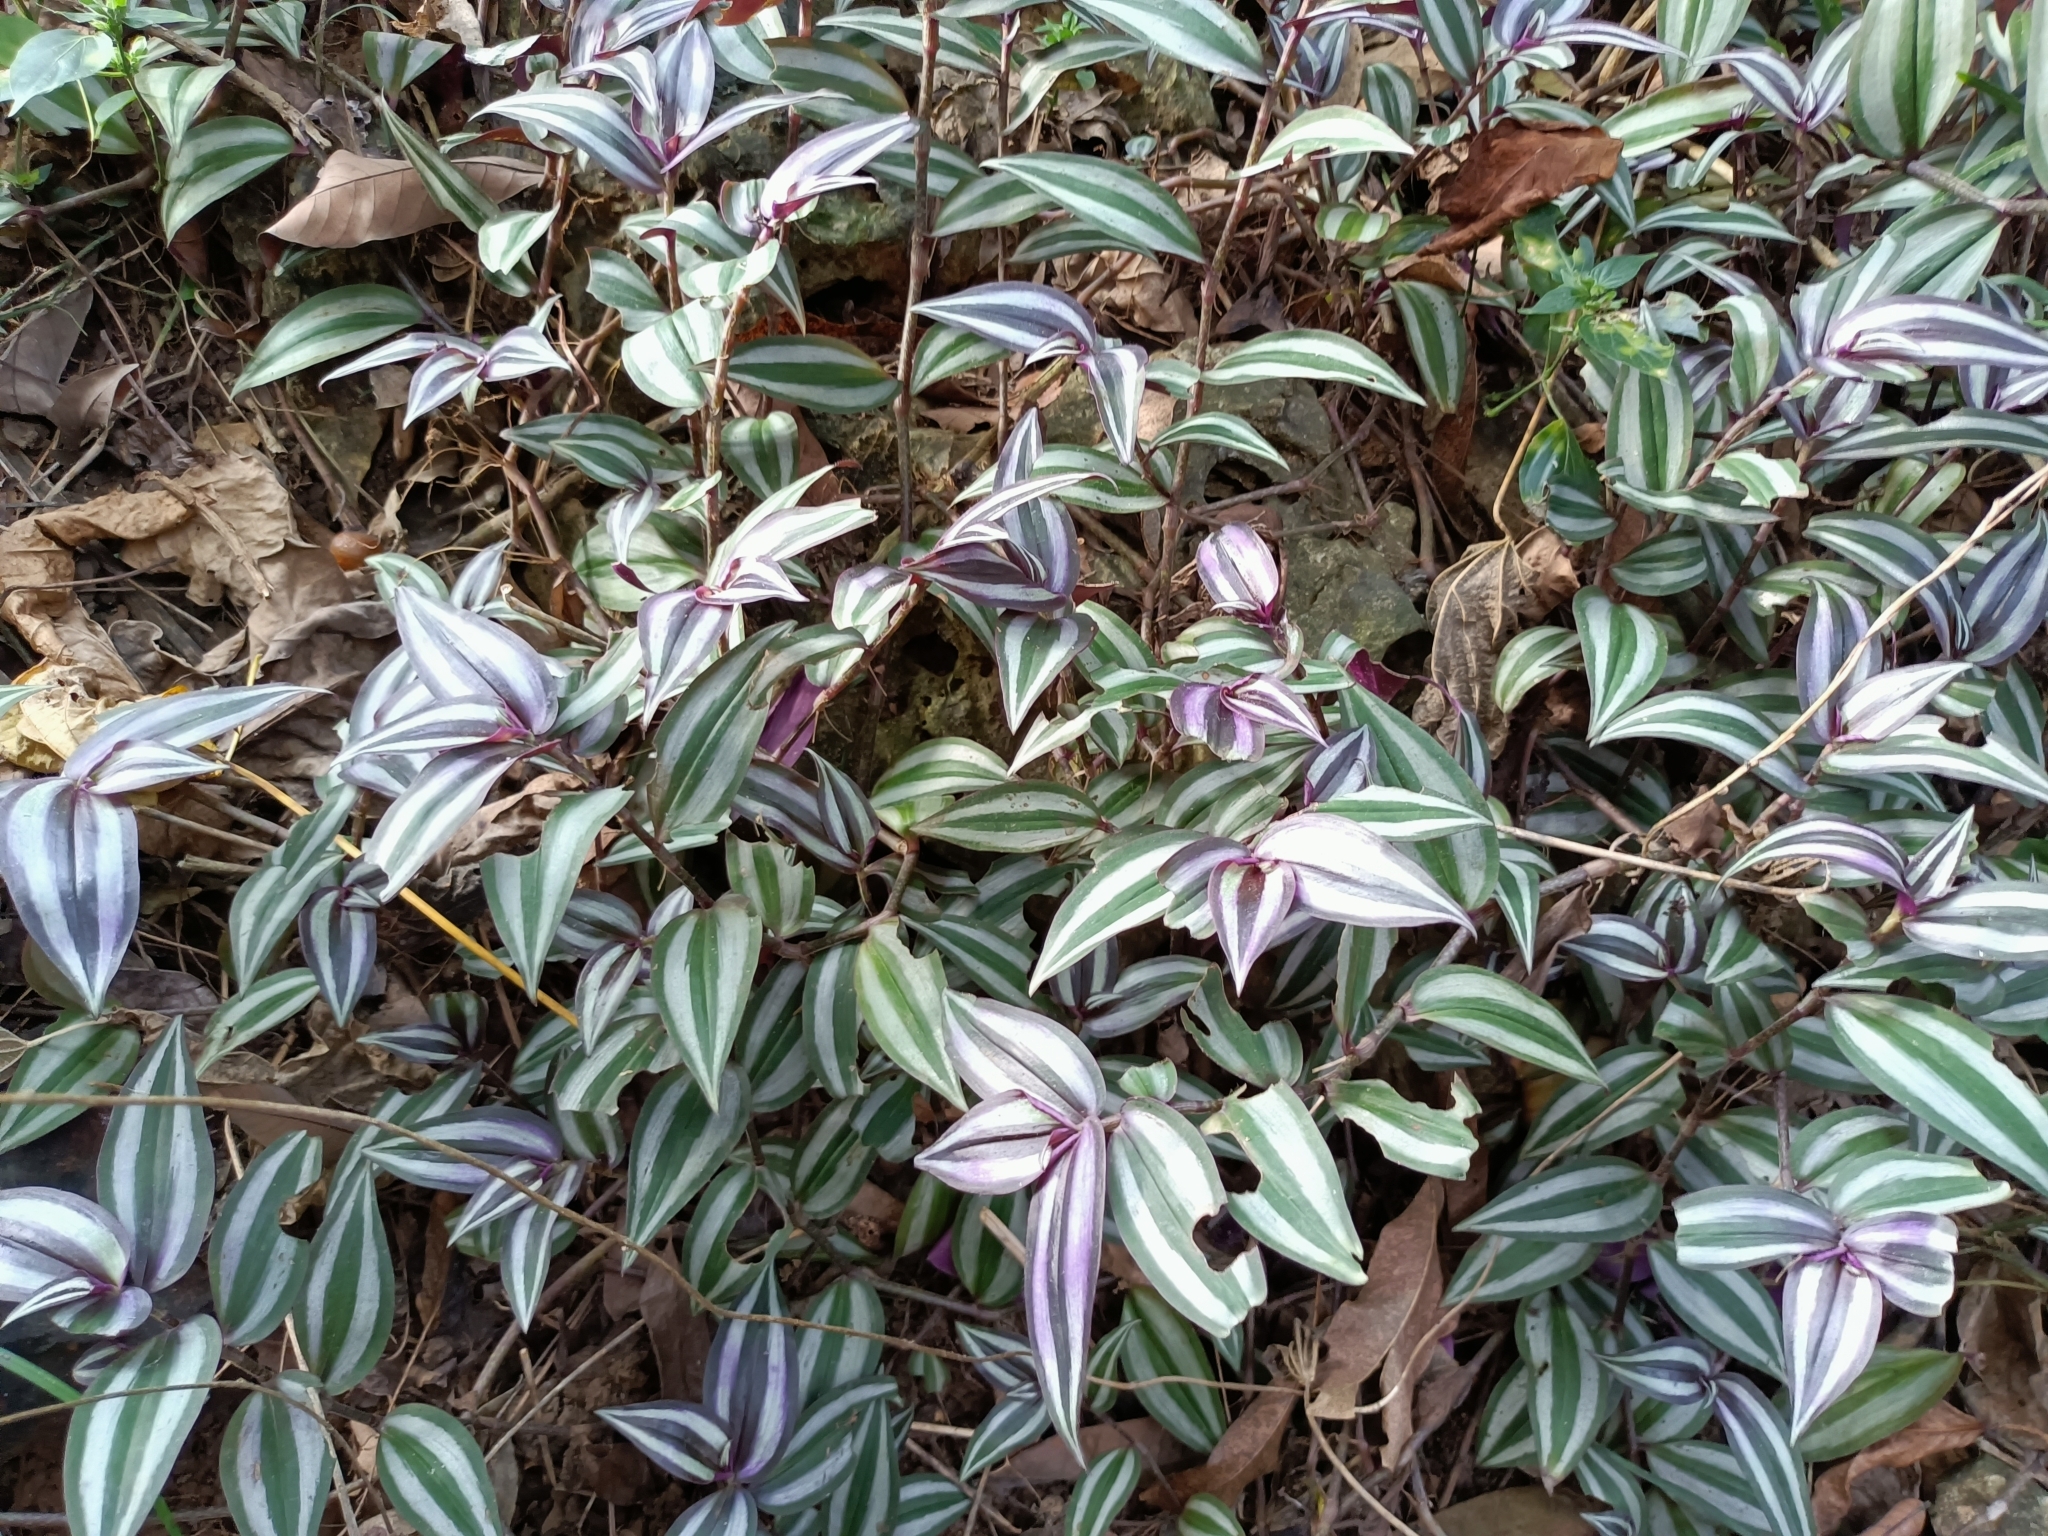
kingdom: Plantae
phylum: Tracheophyta
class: Liliopsida
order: Commelinales
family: Commelinaceae
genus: Tradescantia
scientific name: Tradescantia zebrina
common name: Inchplant
